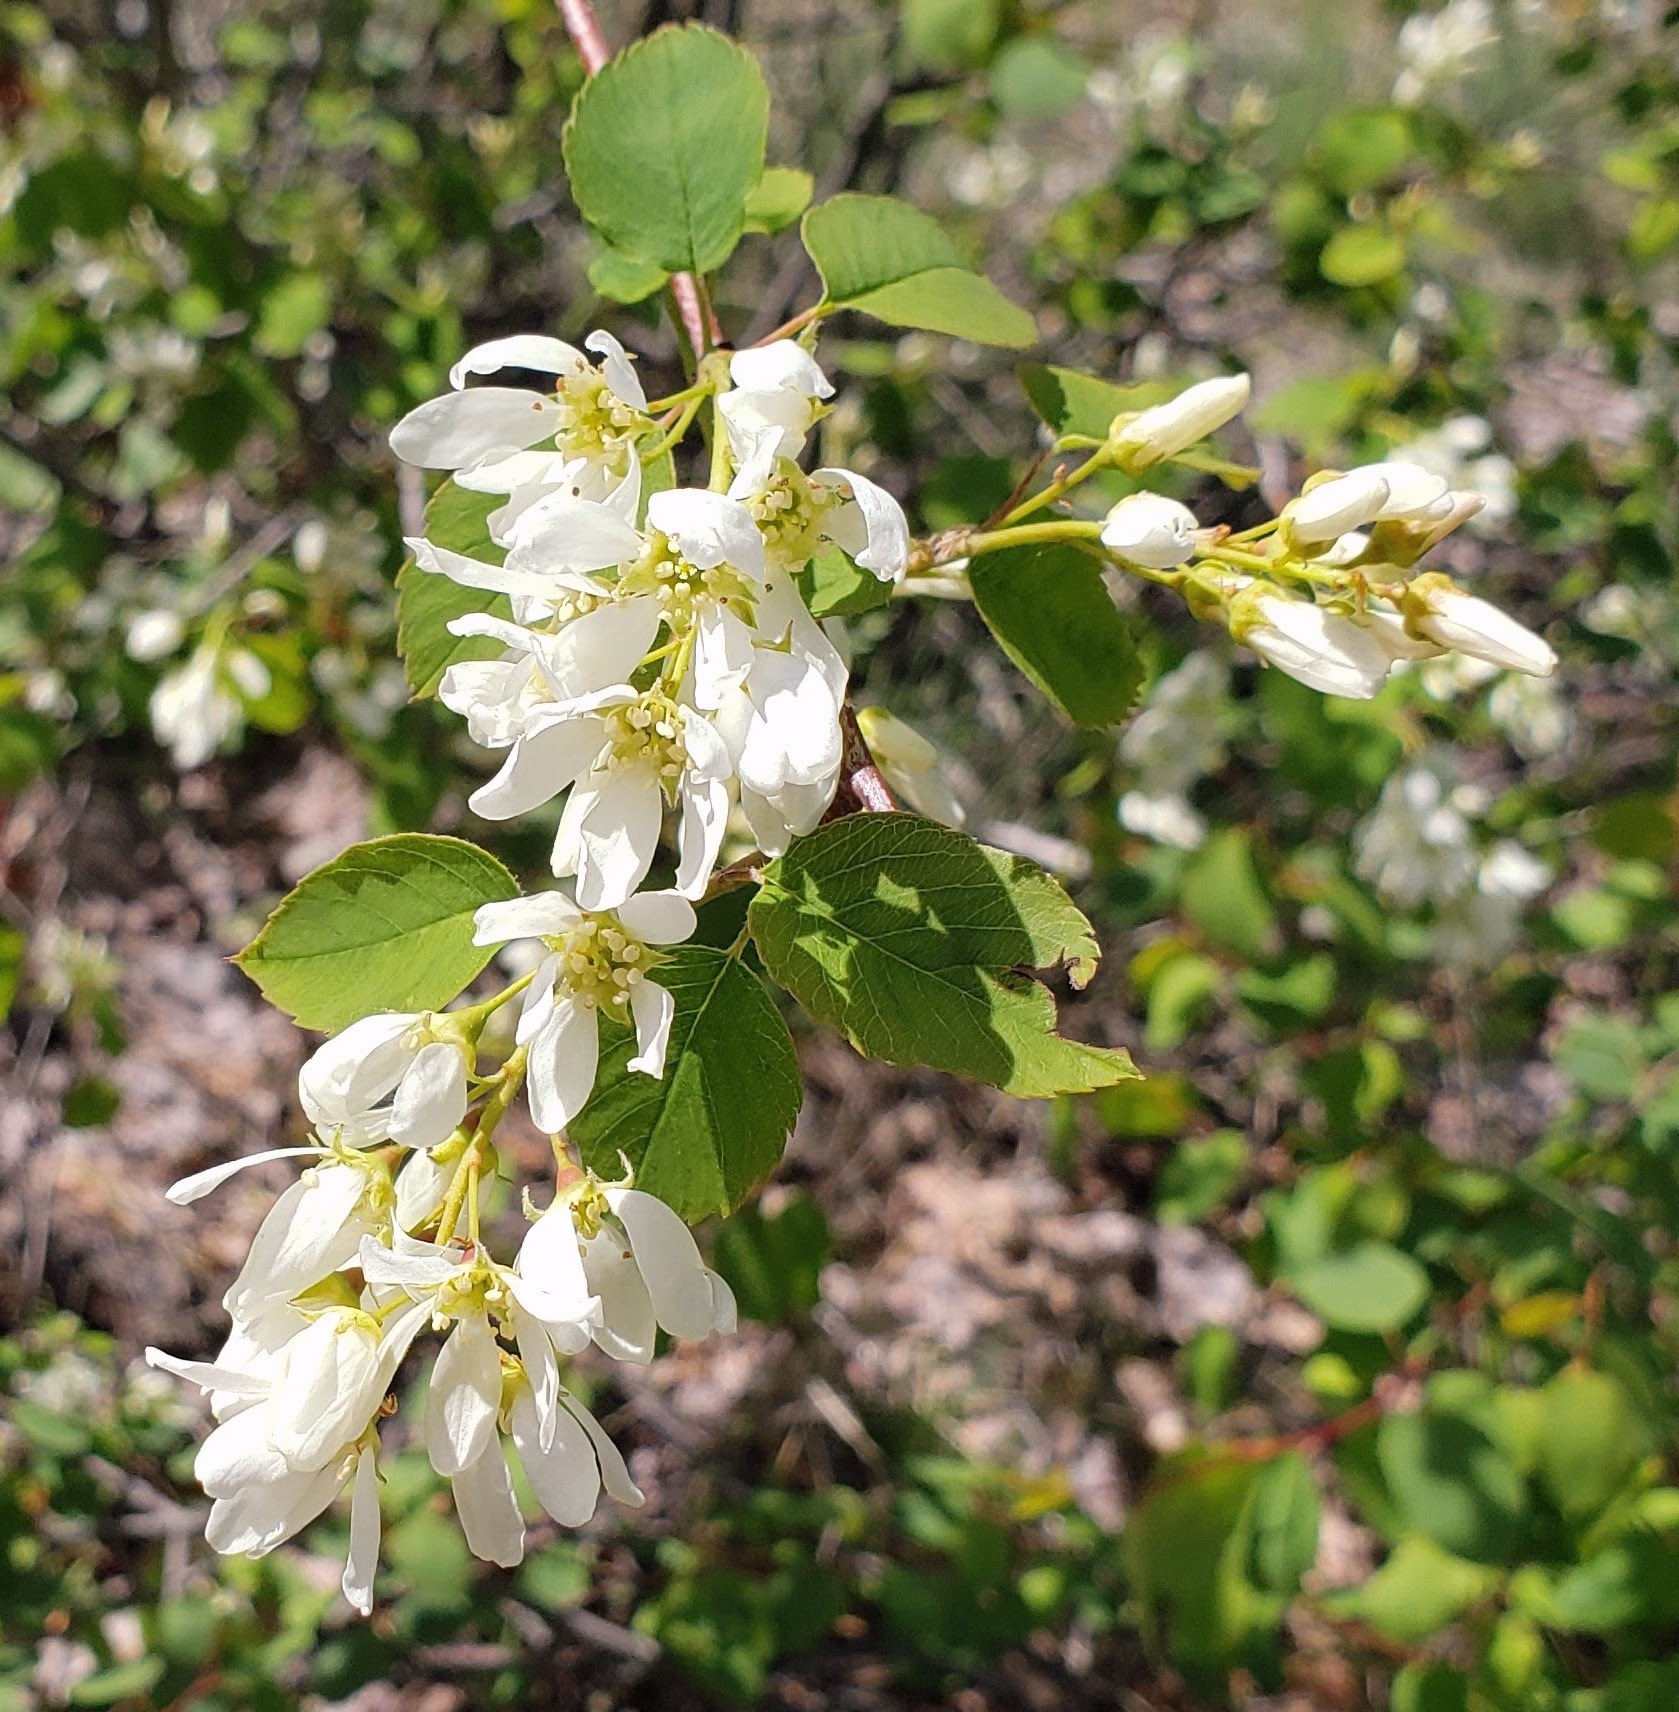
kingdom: Plantae
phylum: Tracheophyta
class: Magnoliopsida
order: Rosales
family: Rosaceae
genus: Amelanchier
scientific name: Amelanchier alnifolia
